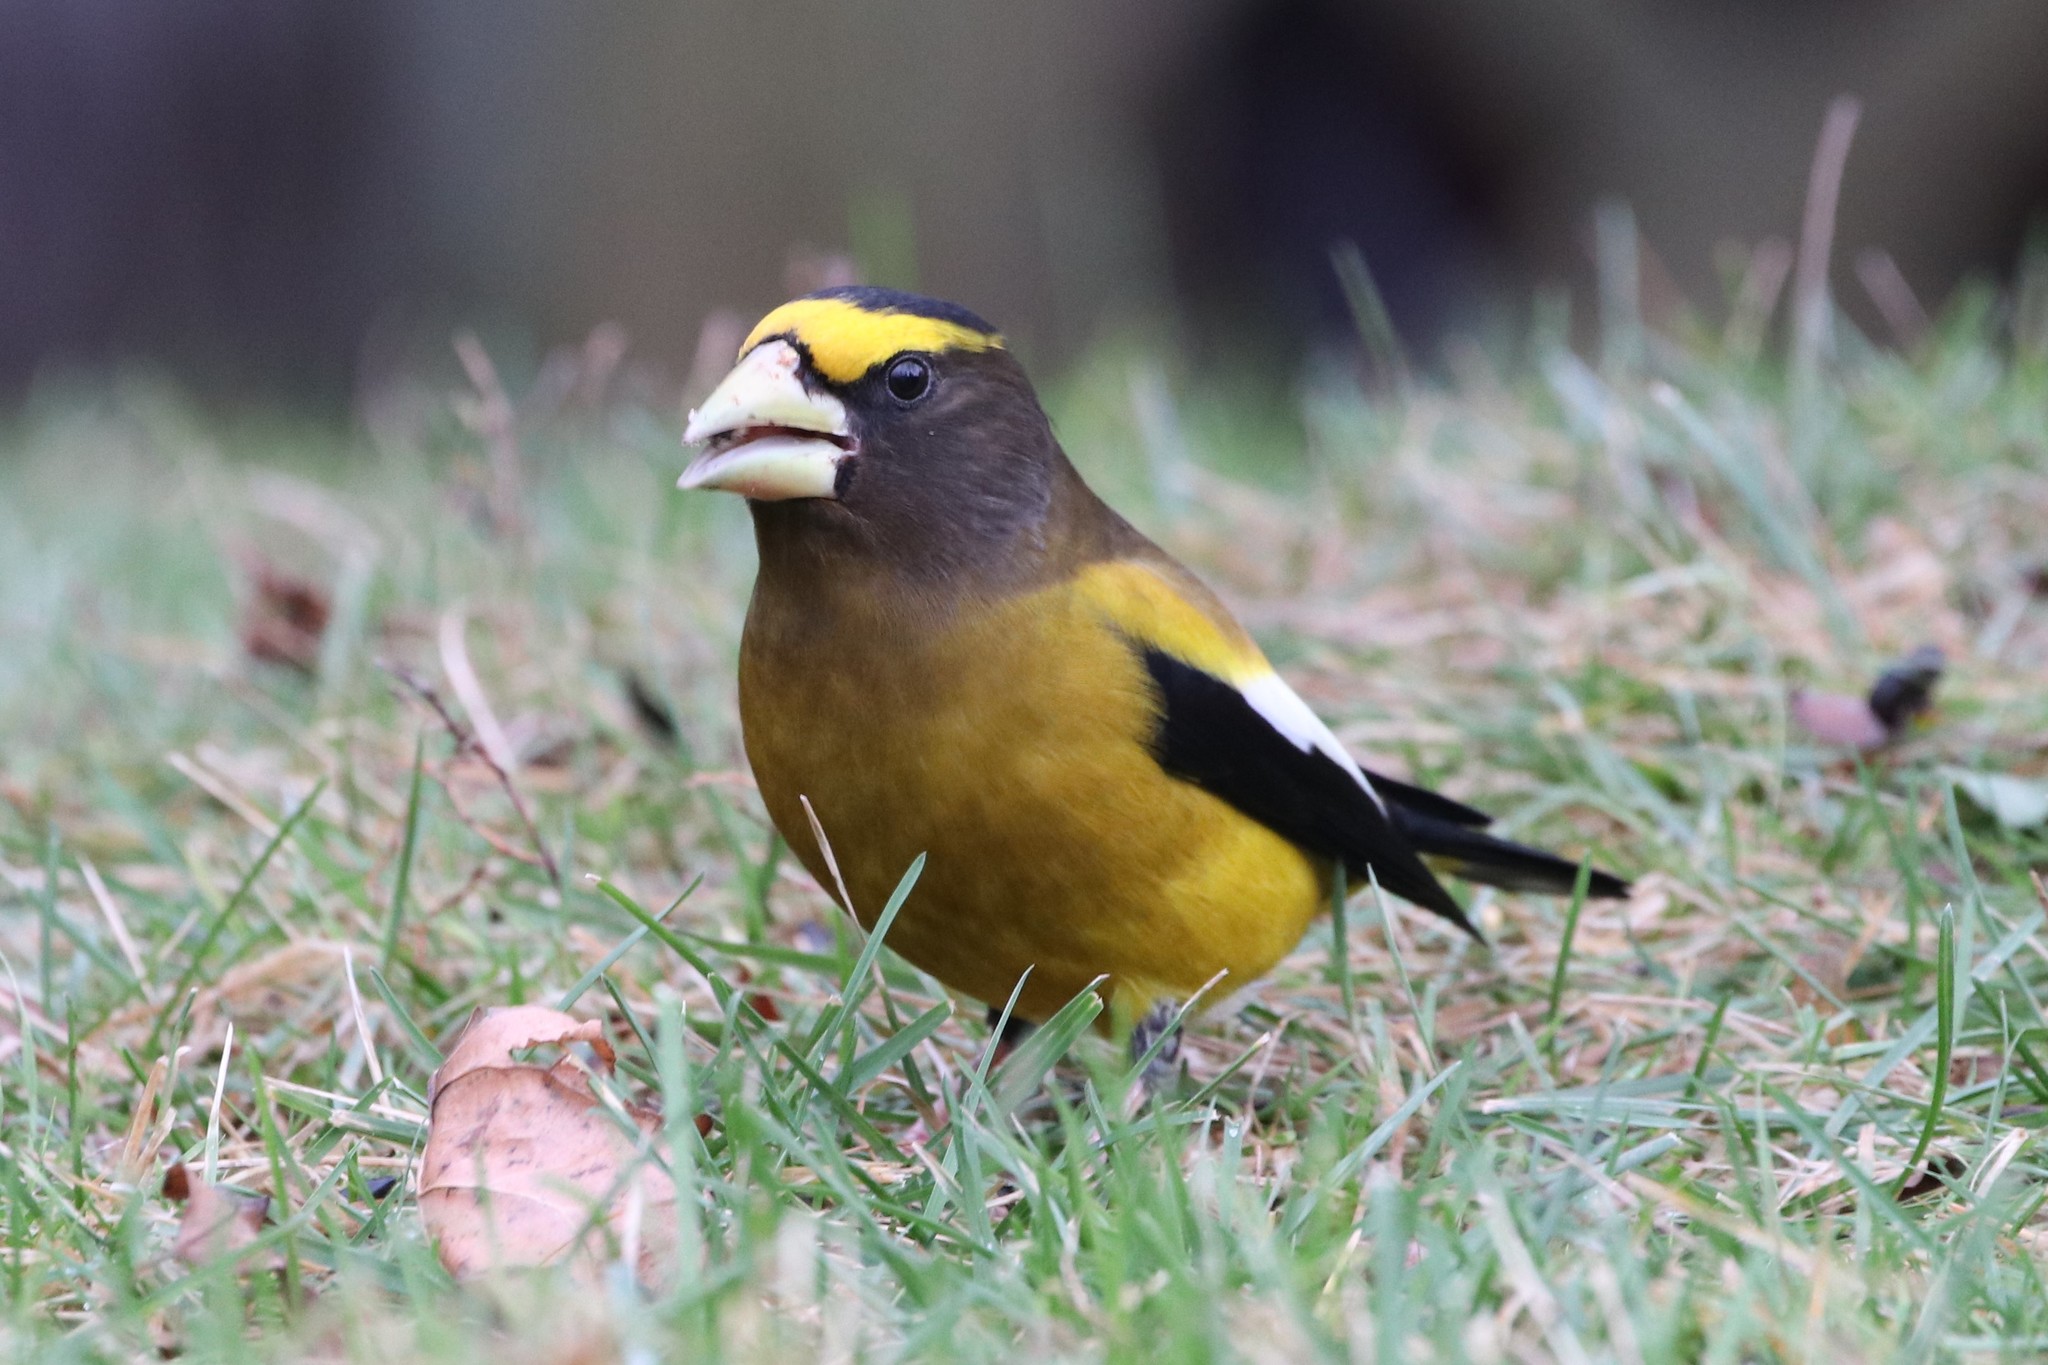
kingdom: Animalia
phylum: Chordata
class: Aves
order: Passeriformes
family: Fringillidae
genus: Hesperiphona
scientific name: Hesperiphona vespertina
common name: Evening grosbeak
